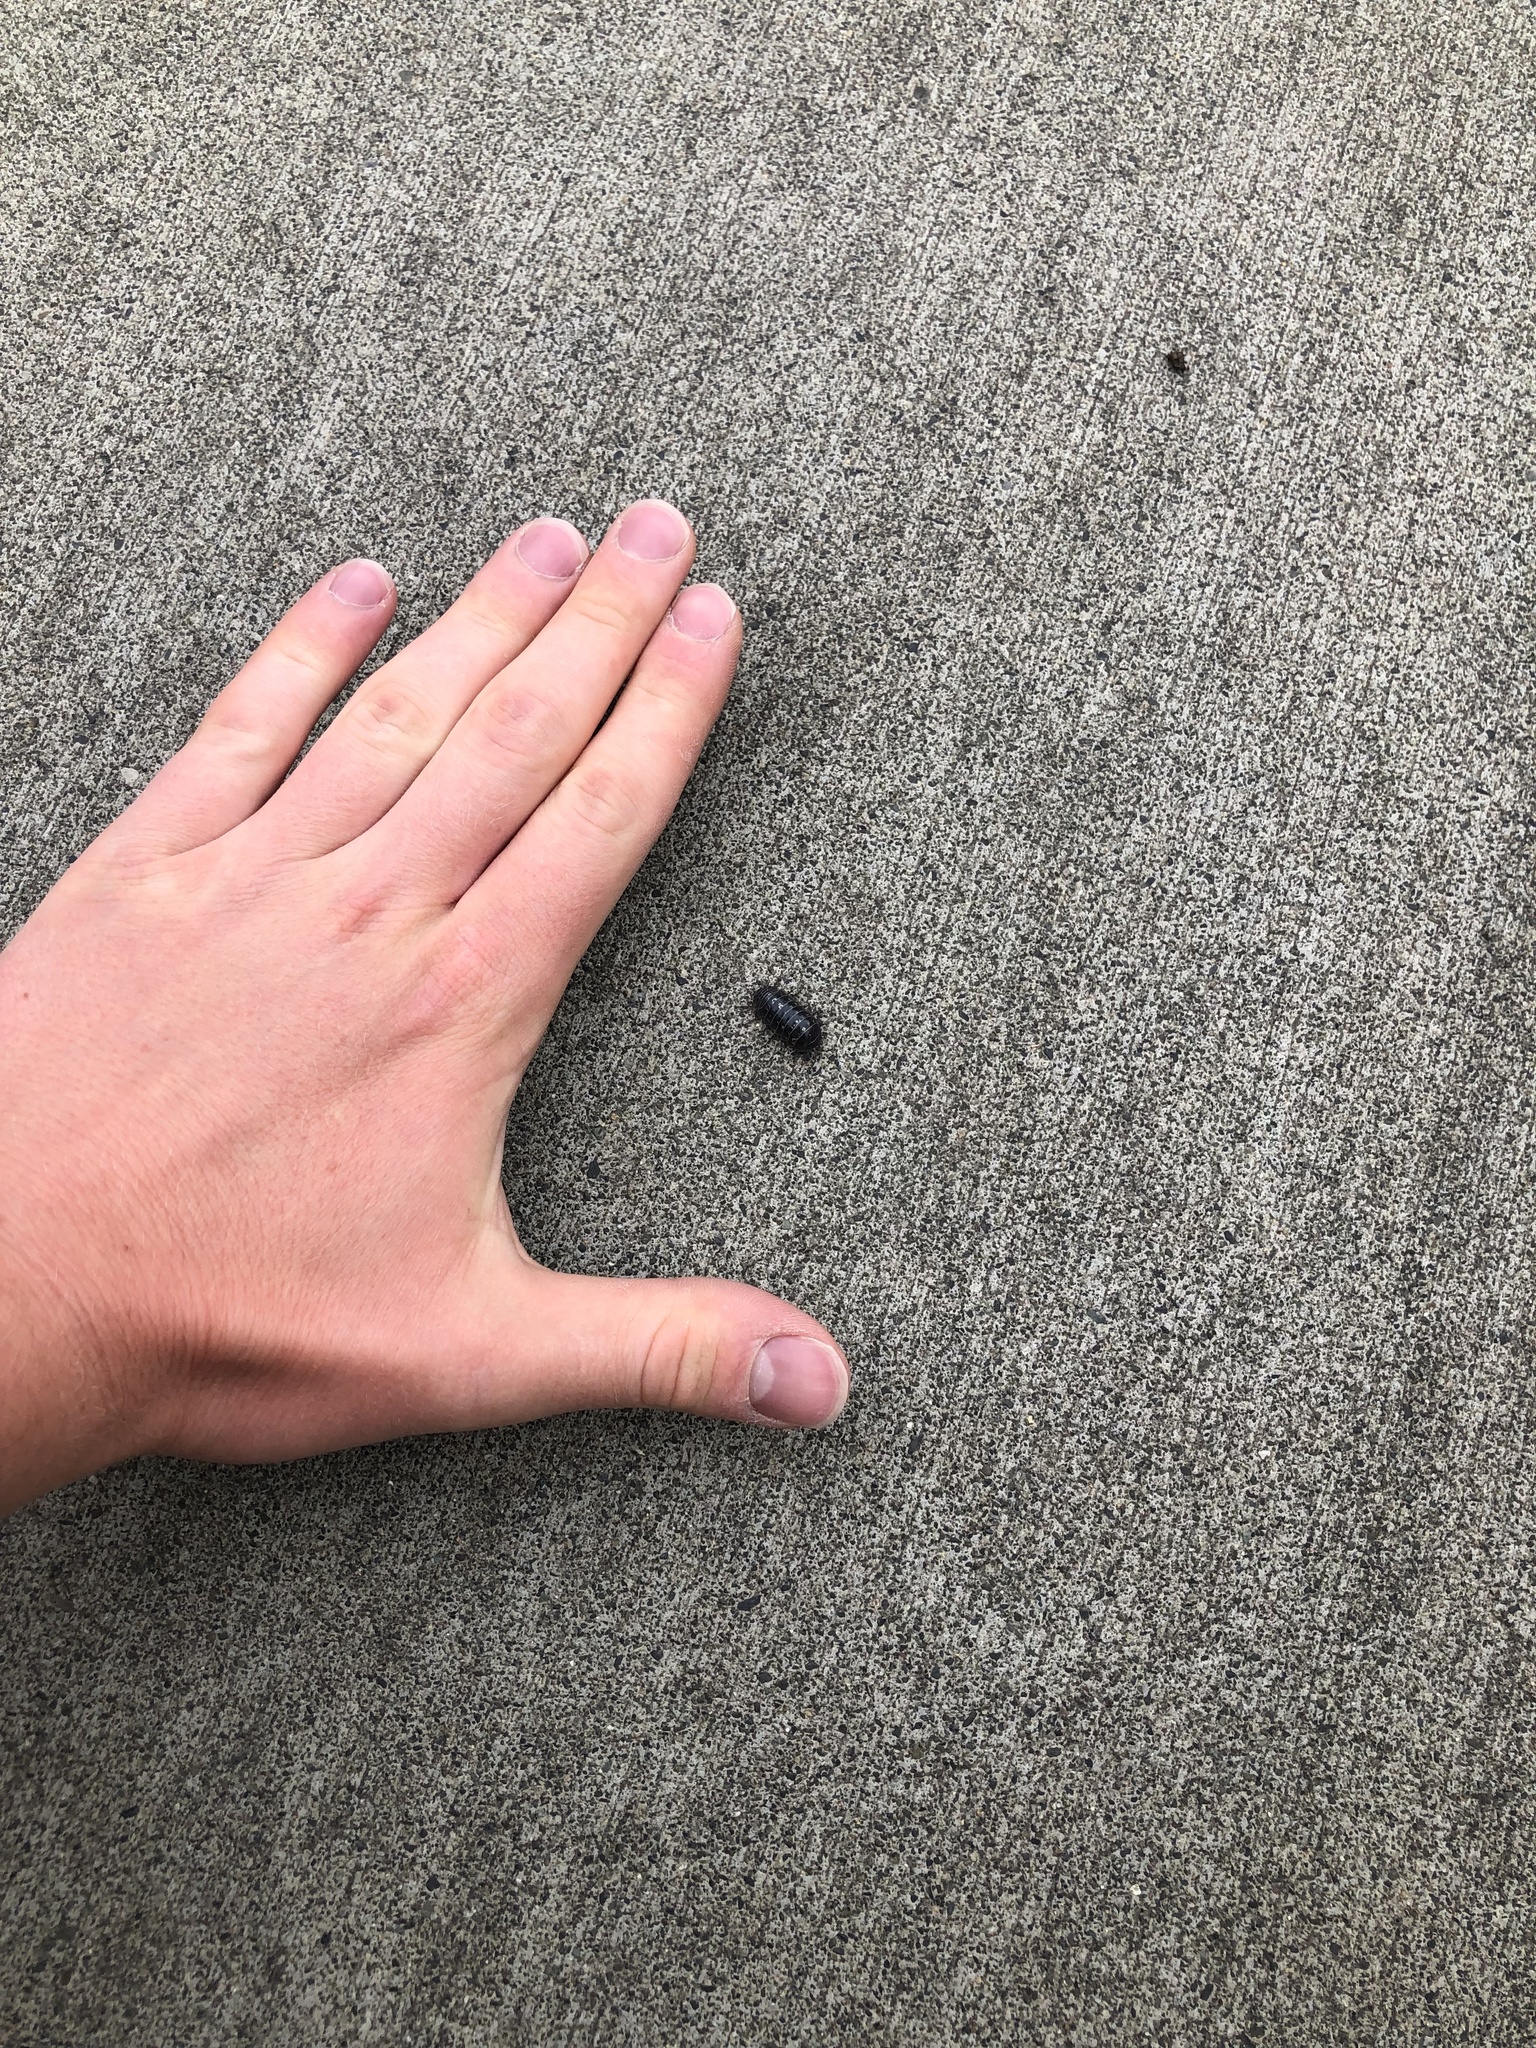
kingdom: Animalia
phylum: Arthropoda
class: Malacostraca
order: Isopoda
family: Armadillidiidae
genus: Armadillidium
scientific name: Armadillidium vulgare
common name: Common pill woodlouse
